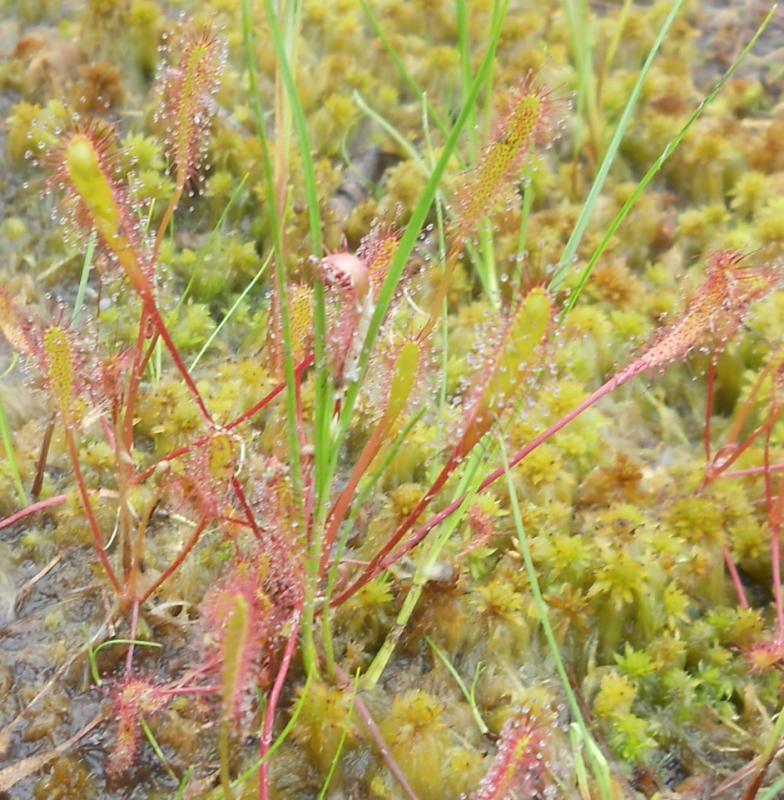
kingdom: Plantae
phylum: Tracheophyta
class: Magnoliopsida
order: Caryophyllales
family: Droseraceae
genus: Drosera
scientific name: Drosera anglica
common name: Great sundew
